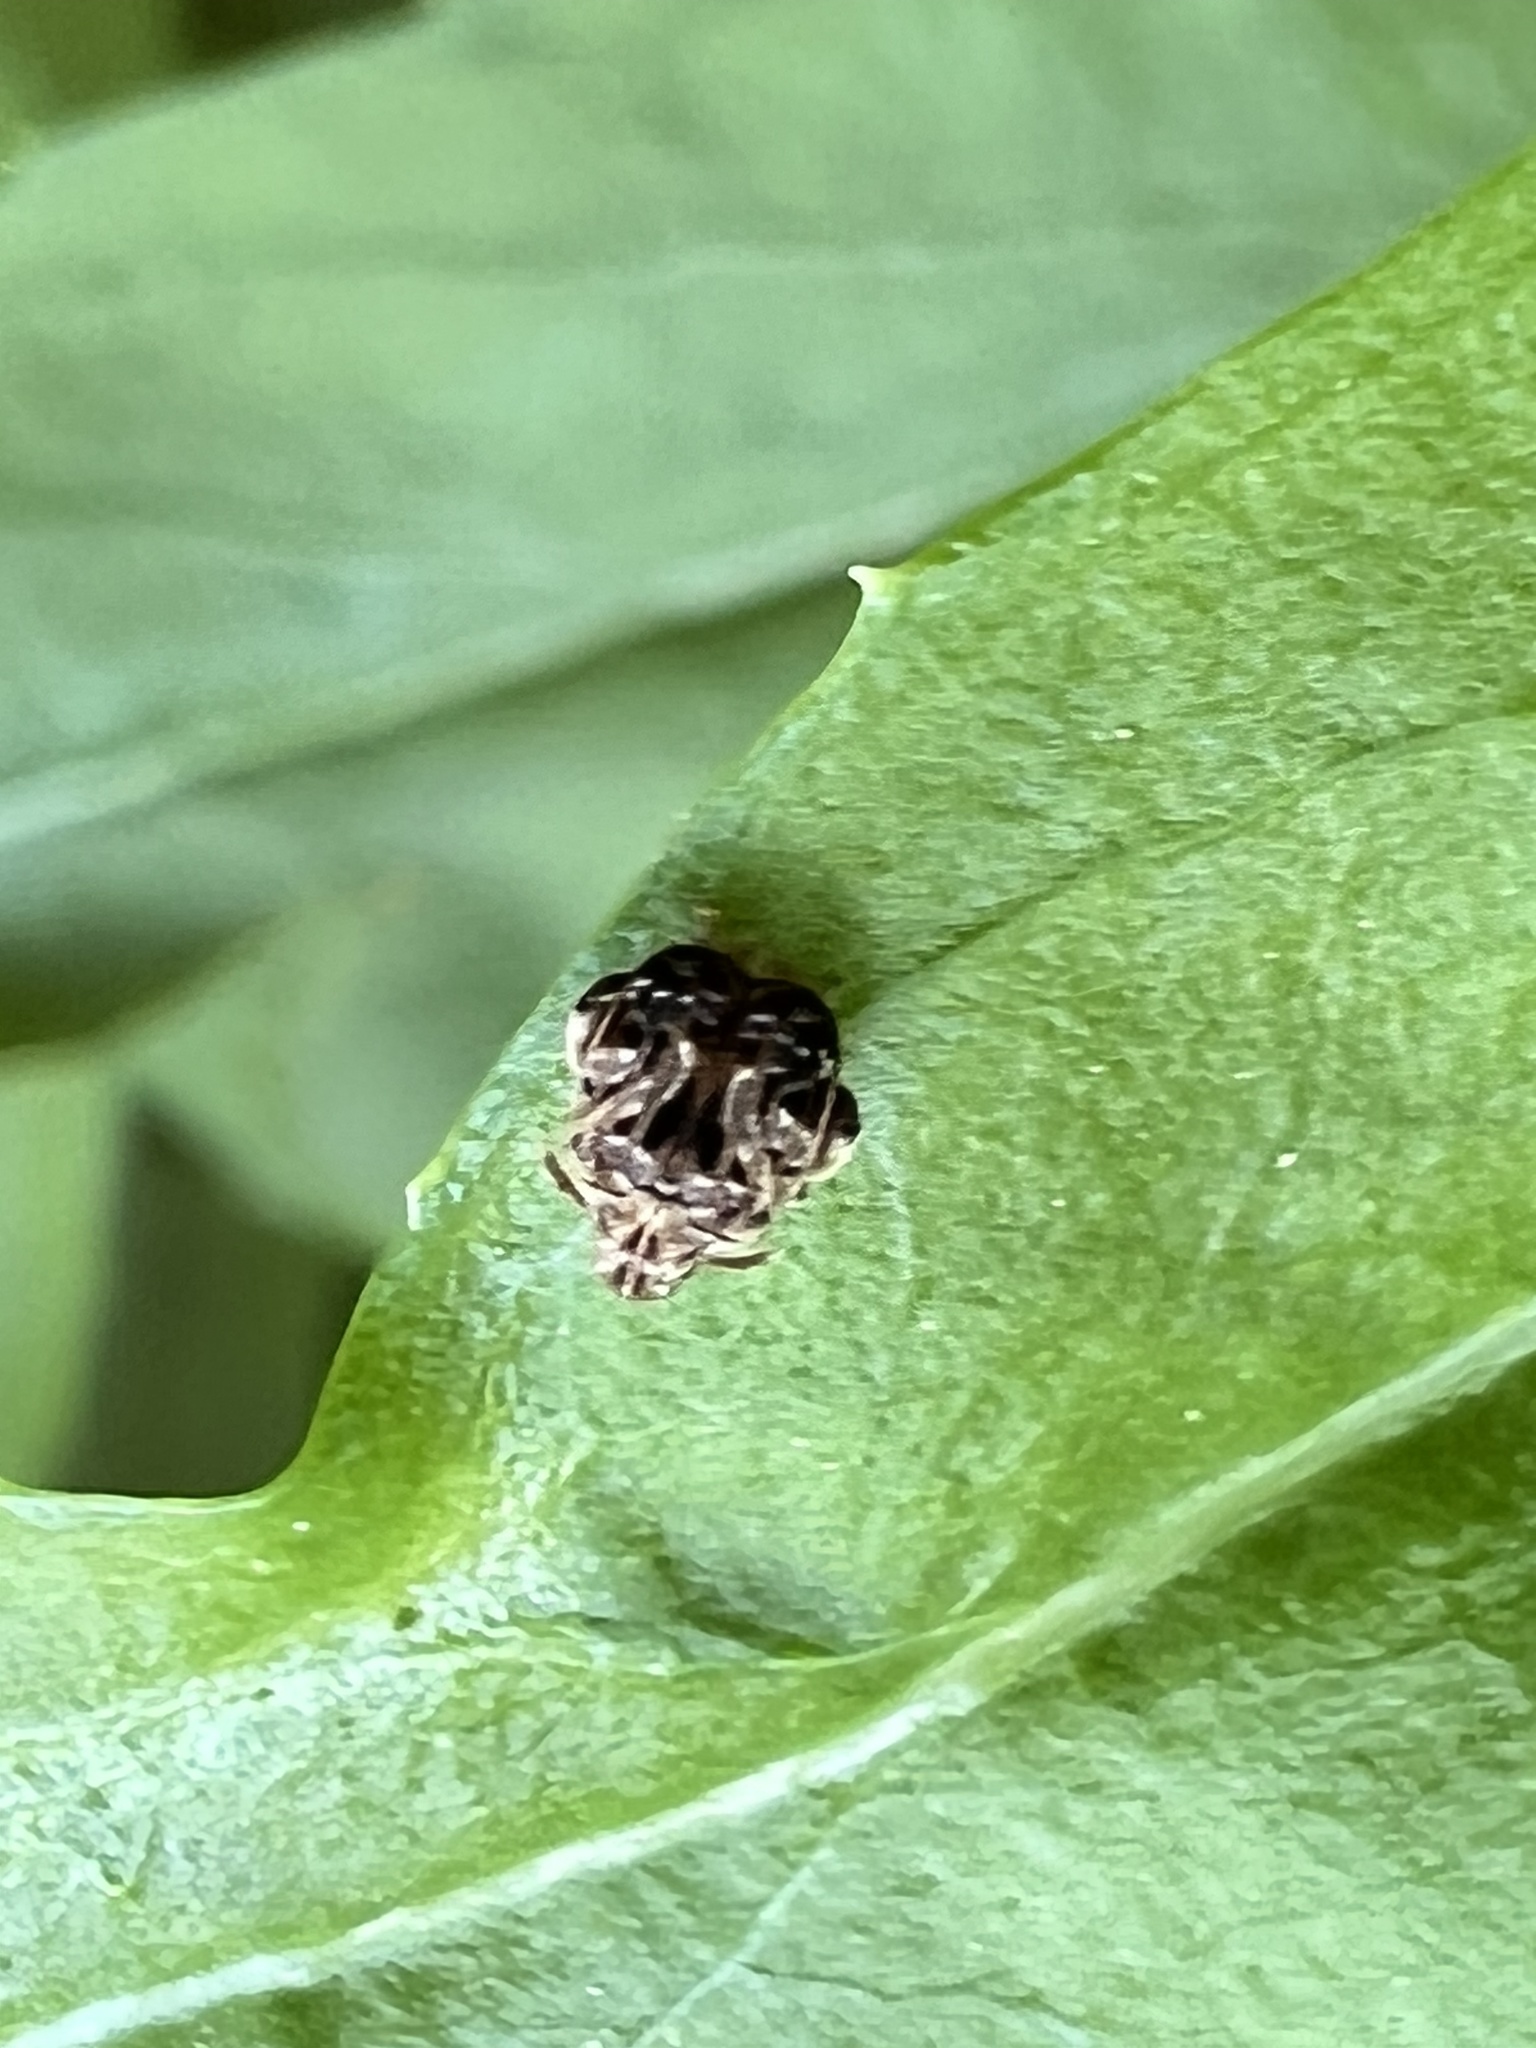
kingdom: Animalia
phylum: Arthropoda
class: Insecta
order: Coleoptera
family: Chrysomelidae
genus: Gibbobruchus
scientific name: Gibbobruchus mimus
